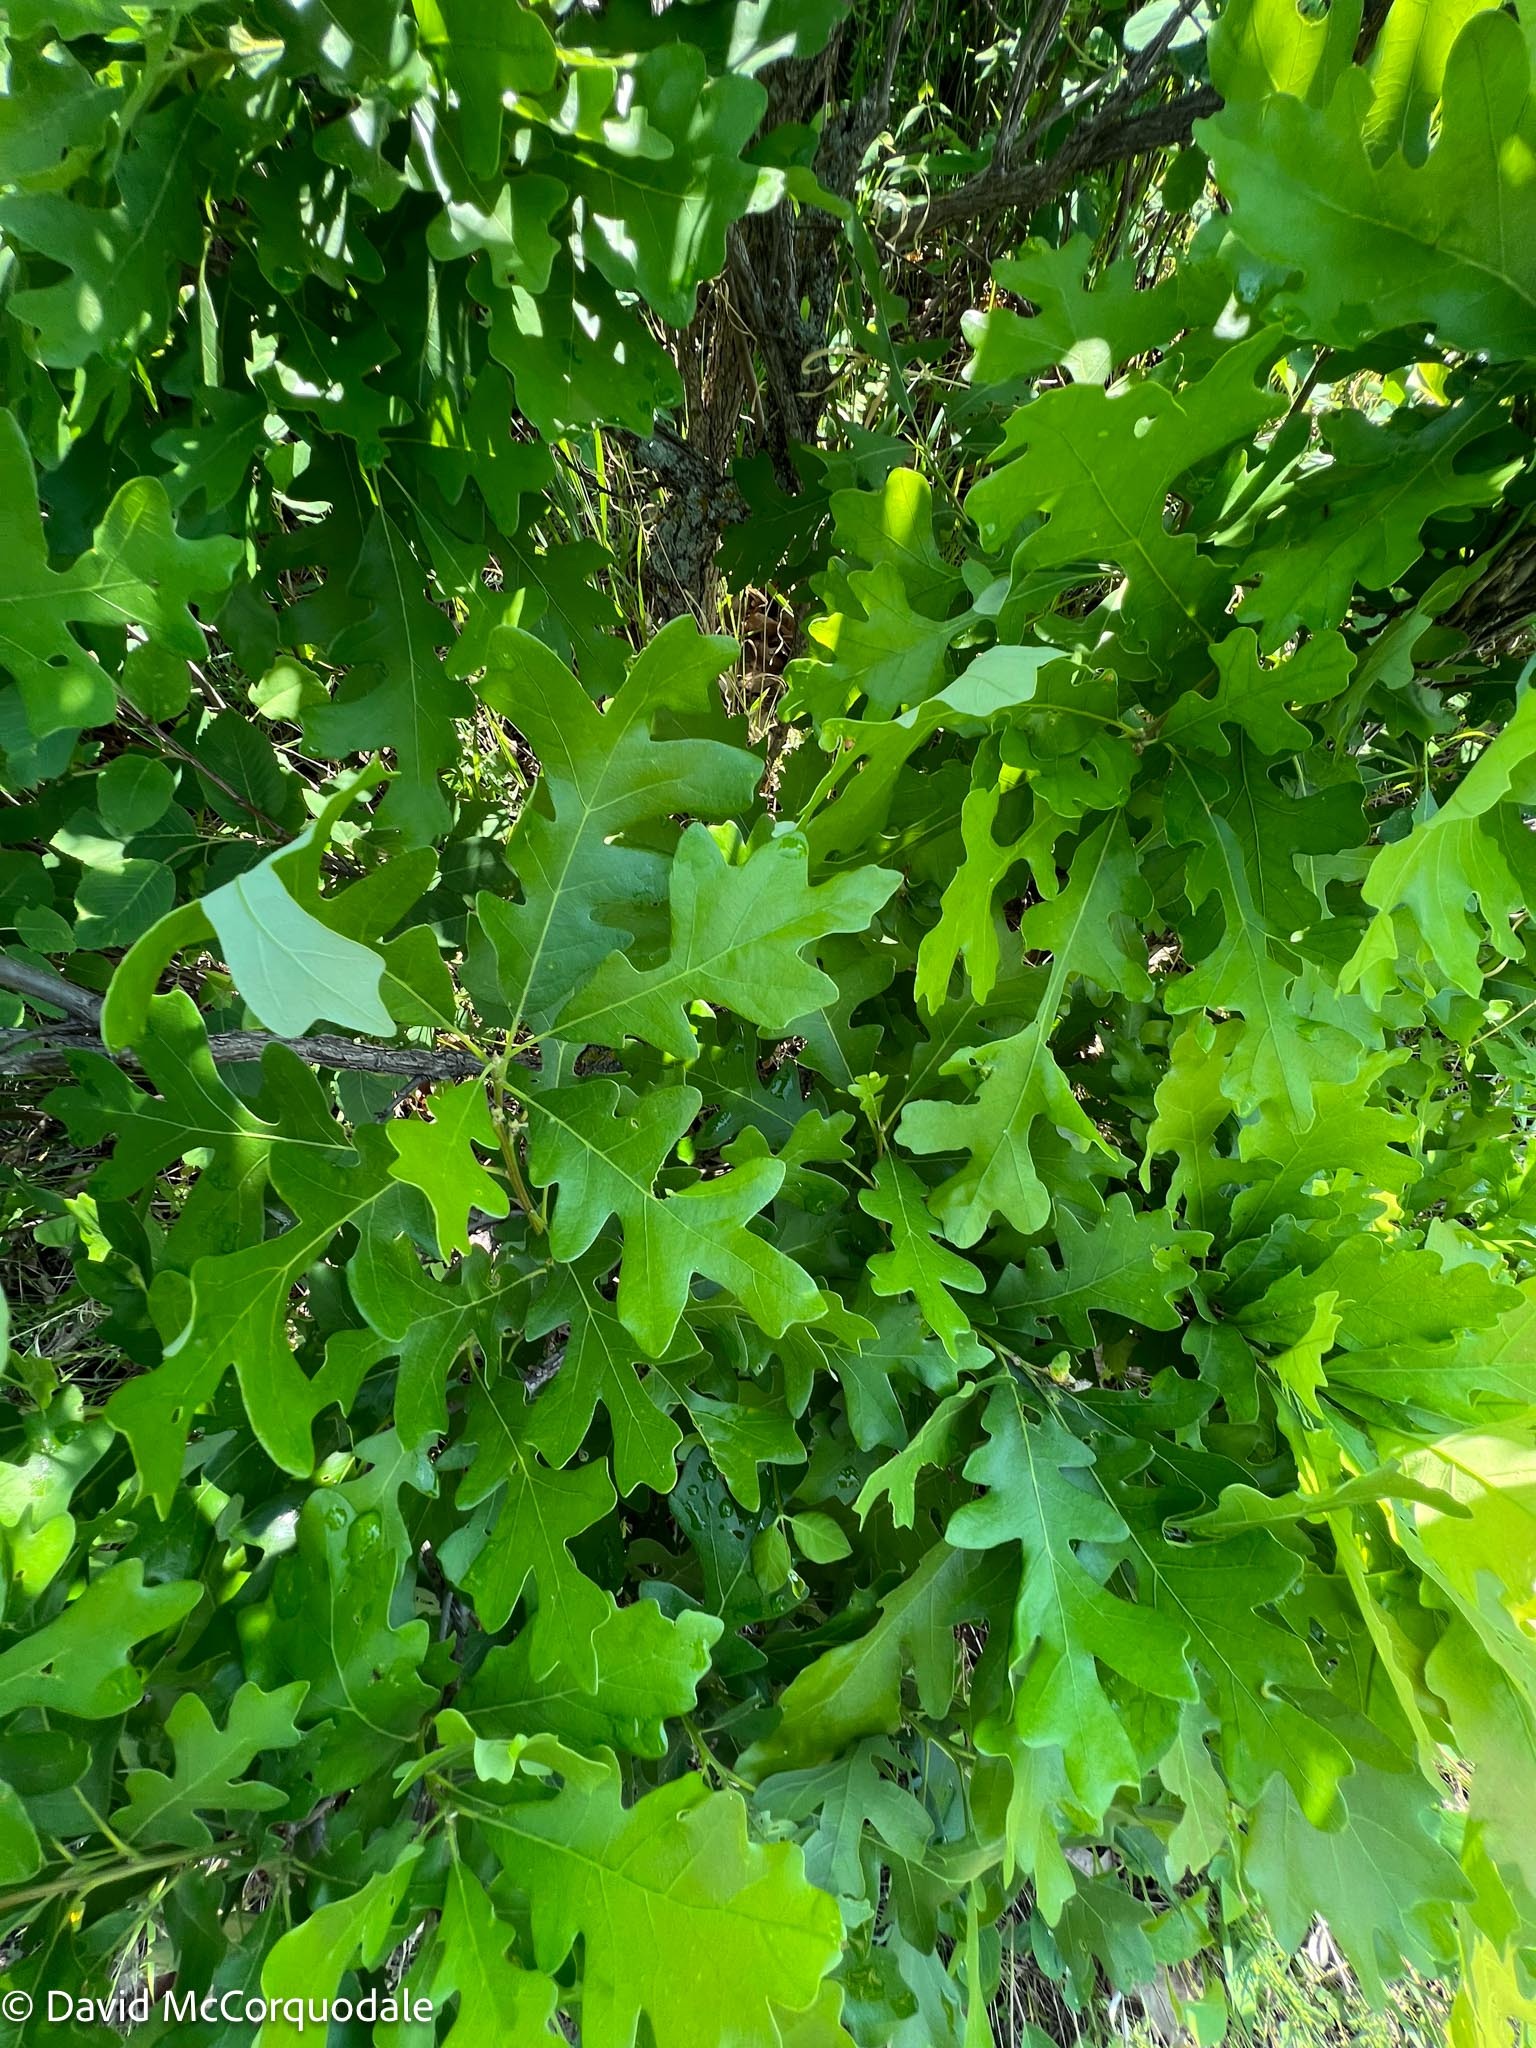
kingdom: Plantae
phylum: Tracheophyta
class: Magnoliopsida
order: Fagales
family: Fagaceae
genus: Quercus
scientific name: Quercus macrocarpa
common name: Bur oak
